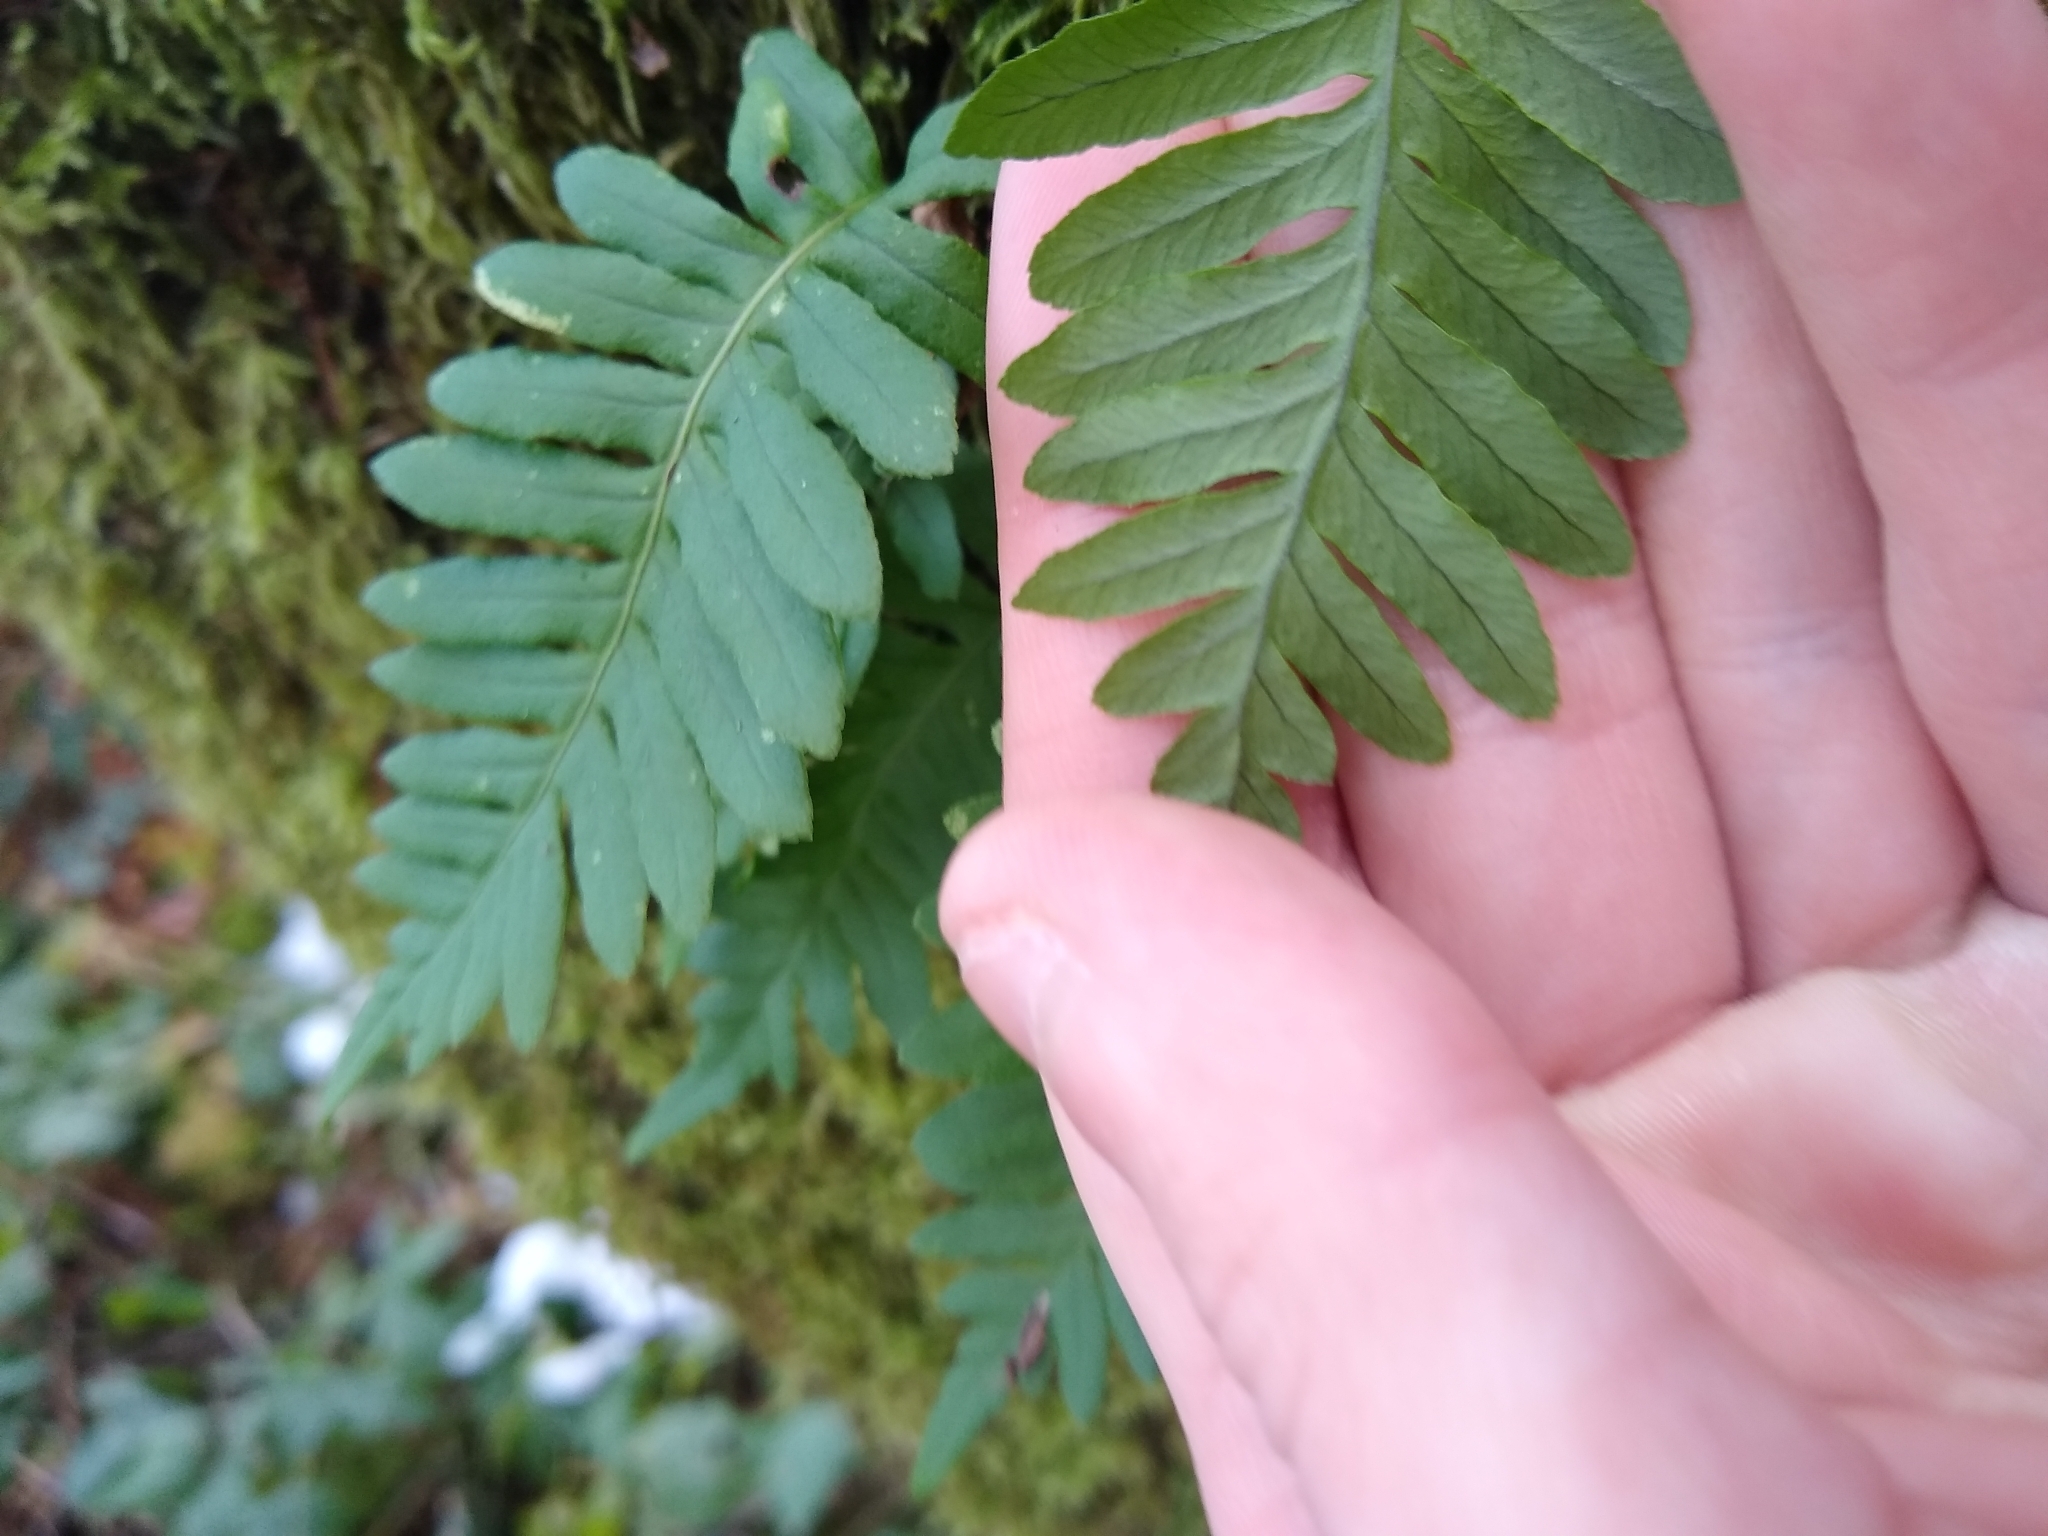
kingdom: Plantae
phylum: Tracheophyta
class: Polypodiopsida
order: Polypodiales
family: Polypodiaceae
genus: Polypodium
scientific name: Polypodium glycyrrhiza
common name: Licorice fern
